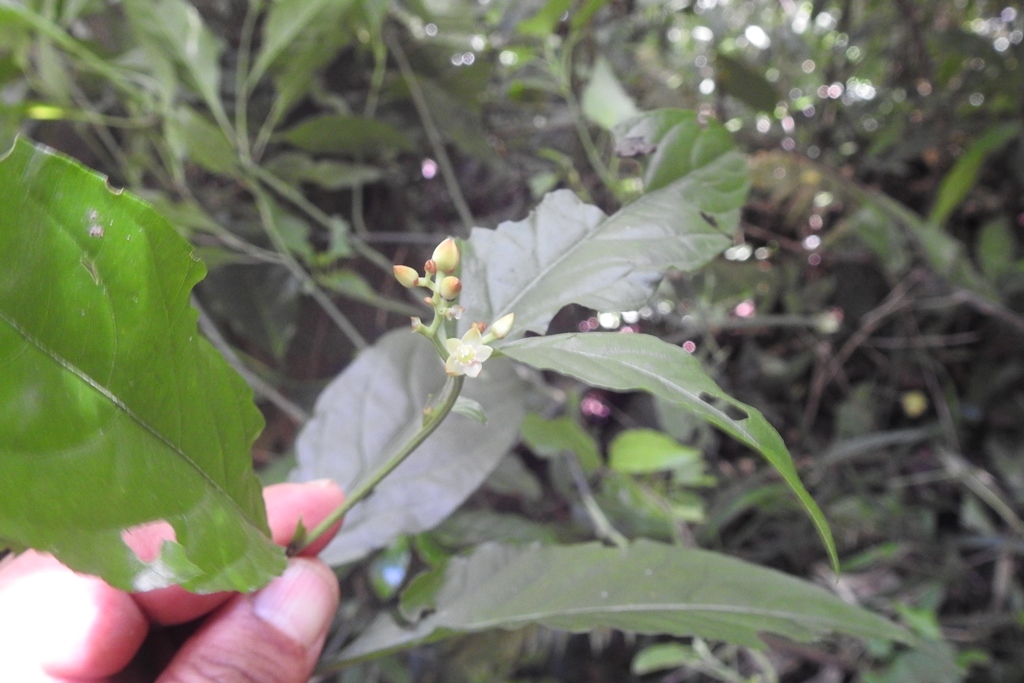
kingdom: Plantae
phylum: Tracheophyta
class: Magnoliopsida
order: Caryophyllales
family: Amaranthaceae
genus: Celosia
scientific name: Celosia nitida
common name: West indian cock's comb
